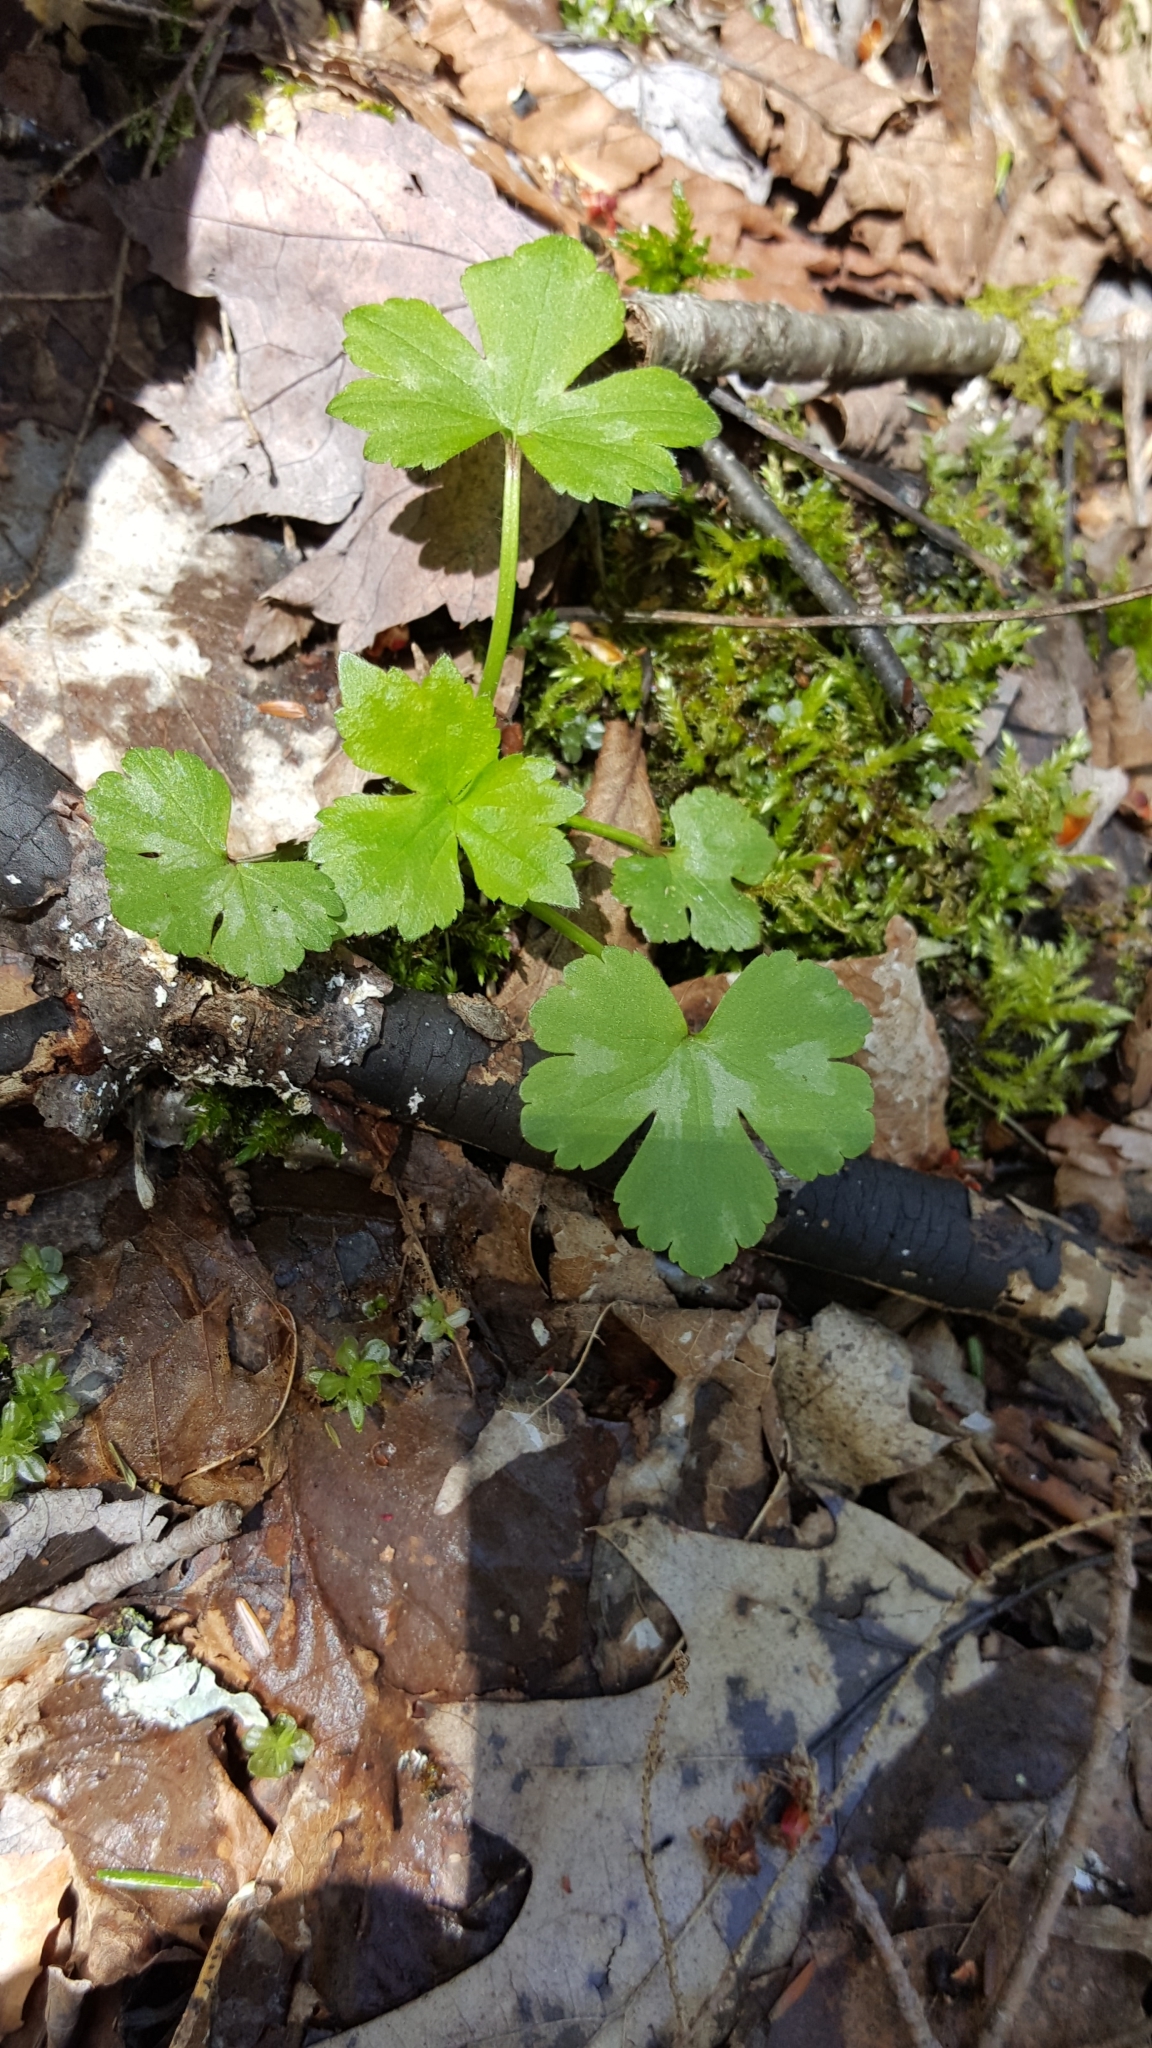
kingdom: Plantae
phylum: Tracheophyta
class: Magnoliopsida
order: Ranunculales
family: Ranunculaceae
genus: Ranunculus
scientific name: Ranunculus recurvatus
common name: Blisterwort
